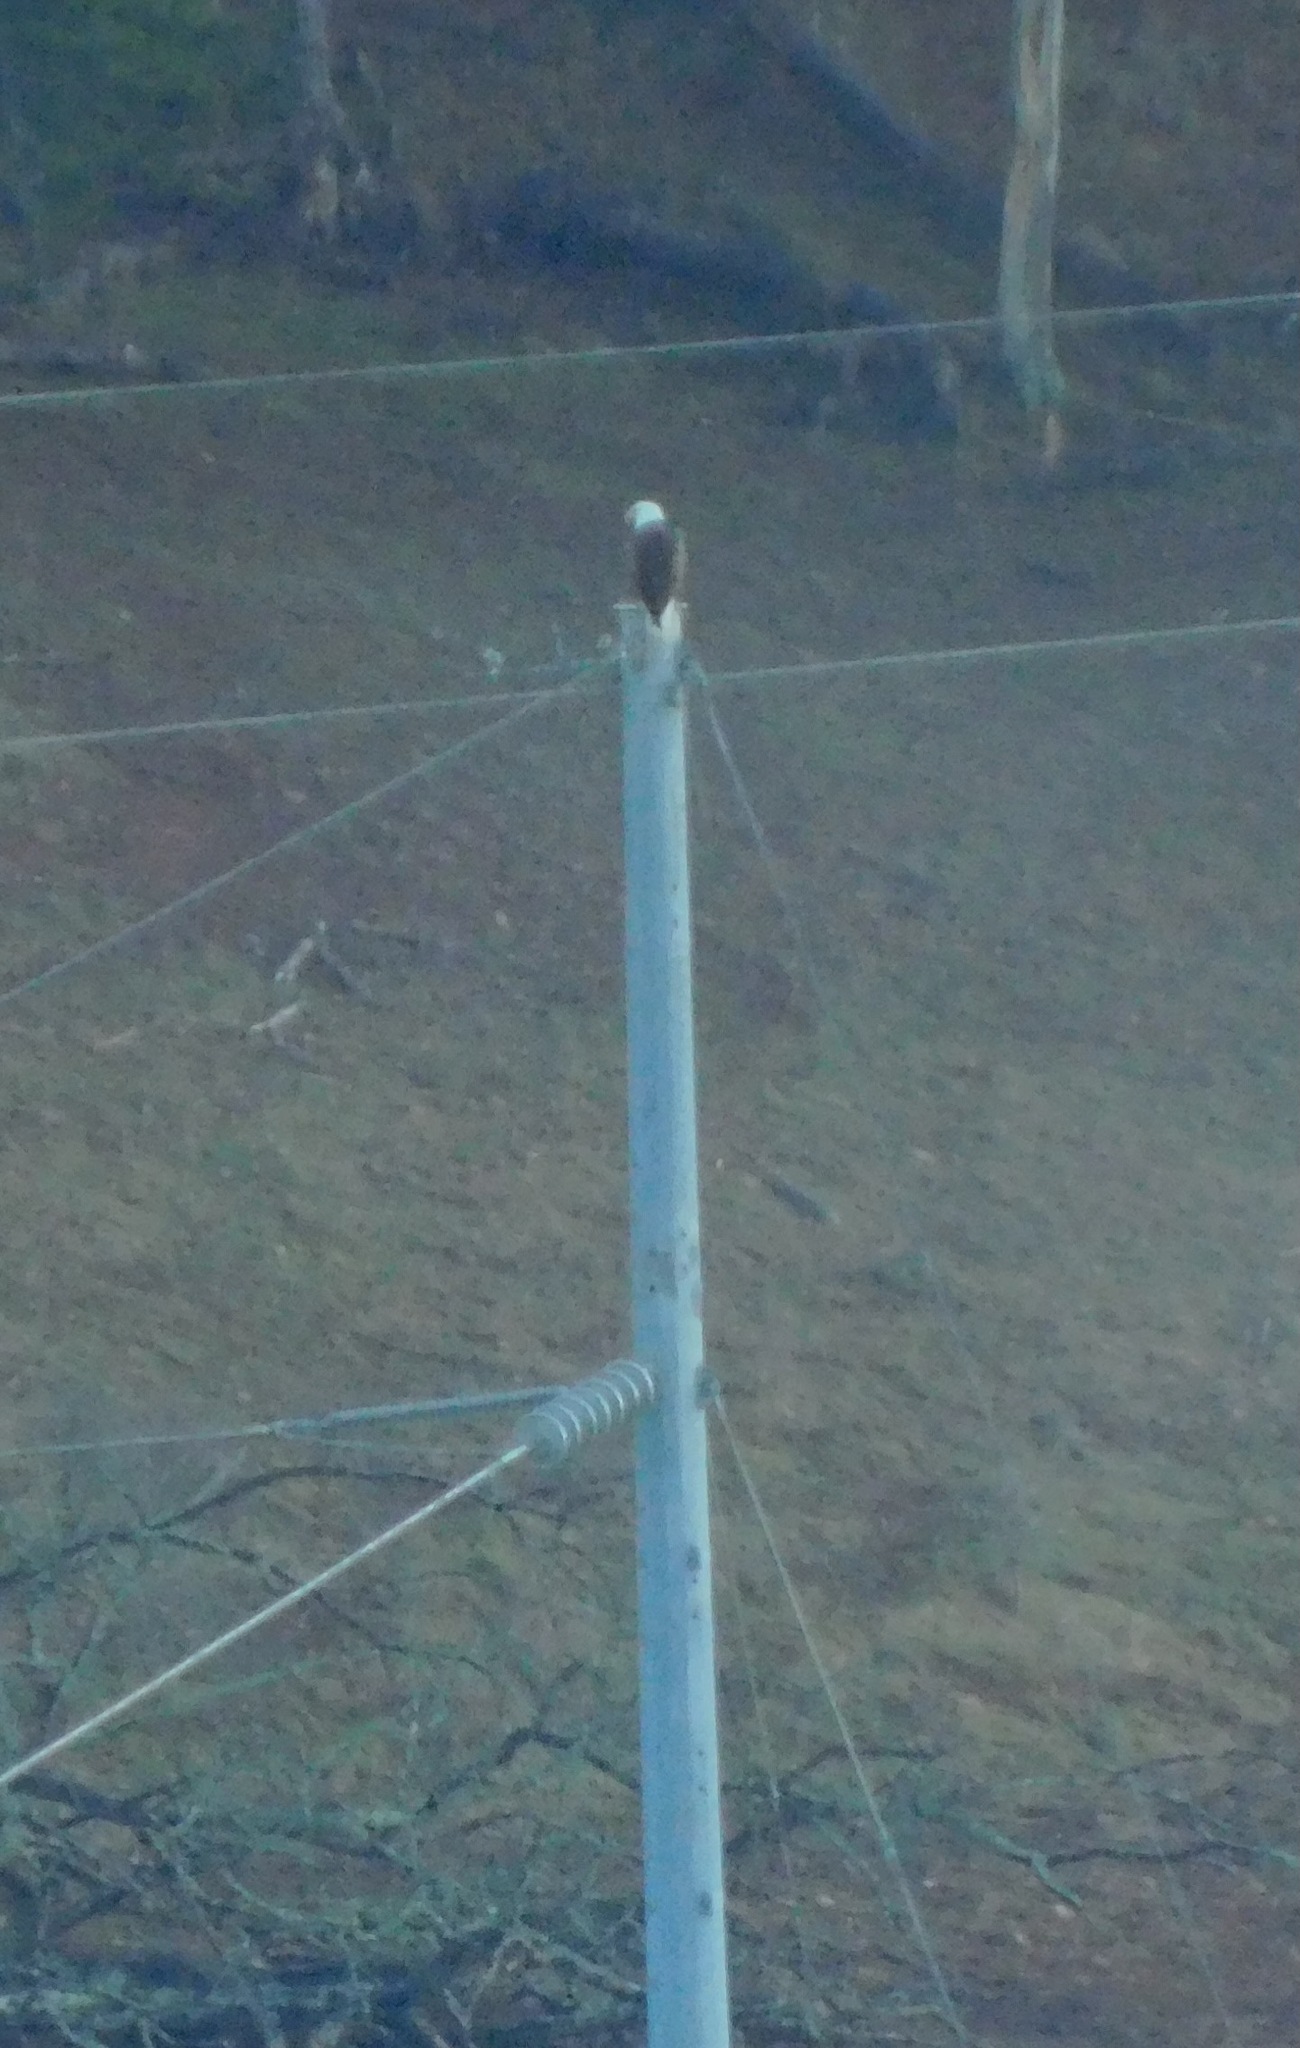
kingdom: Animalia
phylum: Chordata
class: Aves
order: Accipitriformes
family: Accipitridae
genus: Haliaeetus
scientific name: Haliaeetus leucocephalus
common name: Bald eagle
